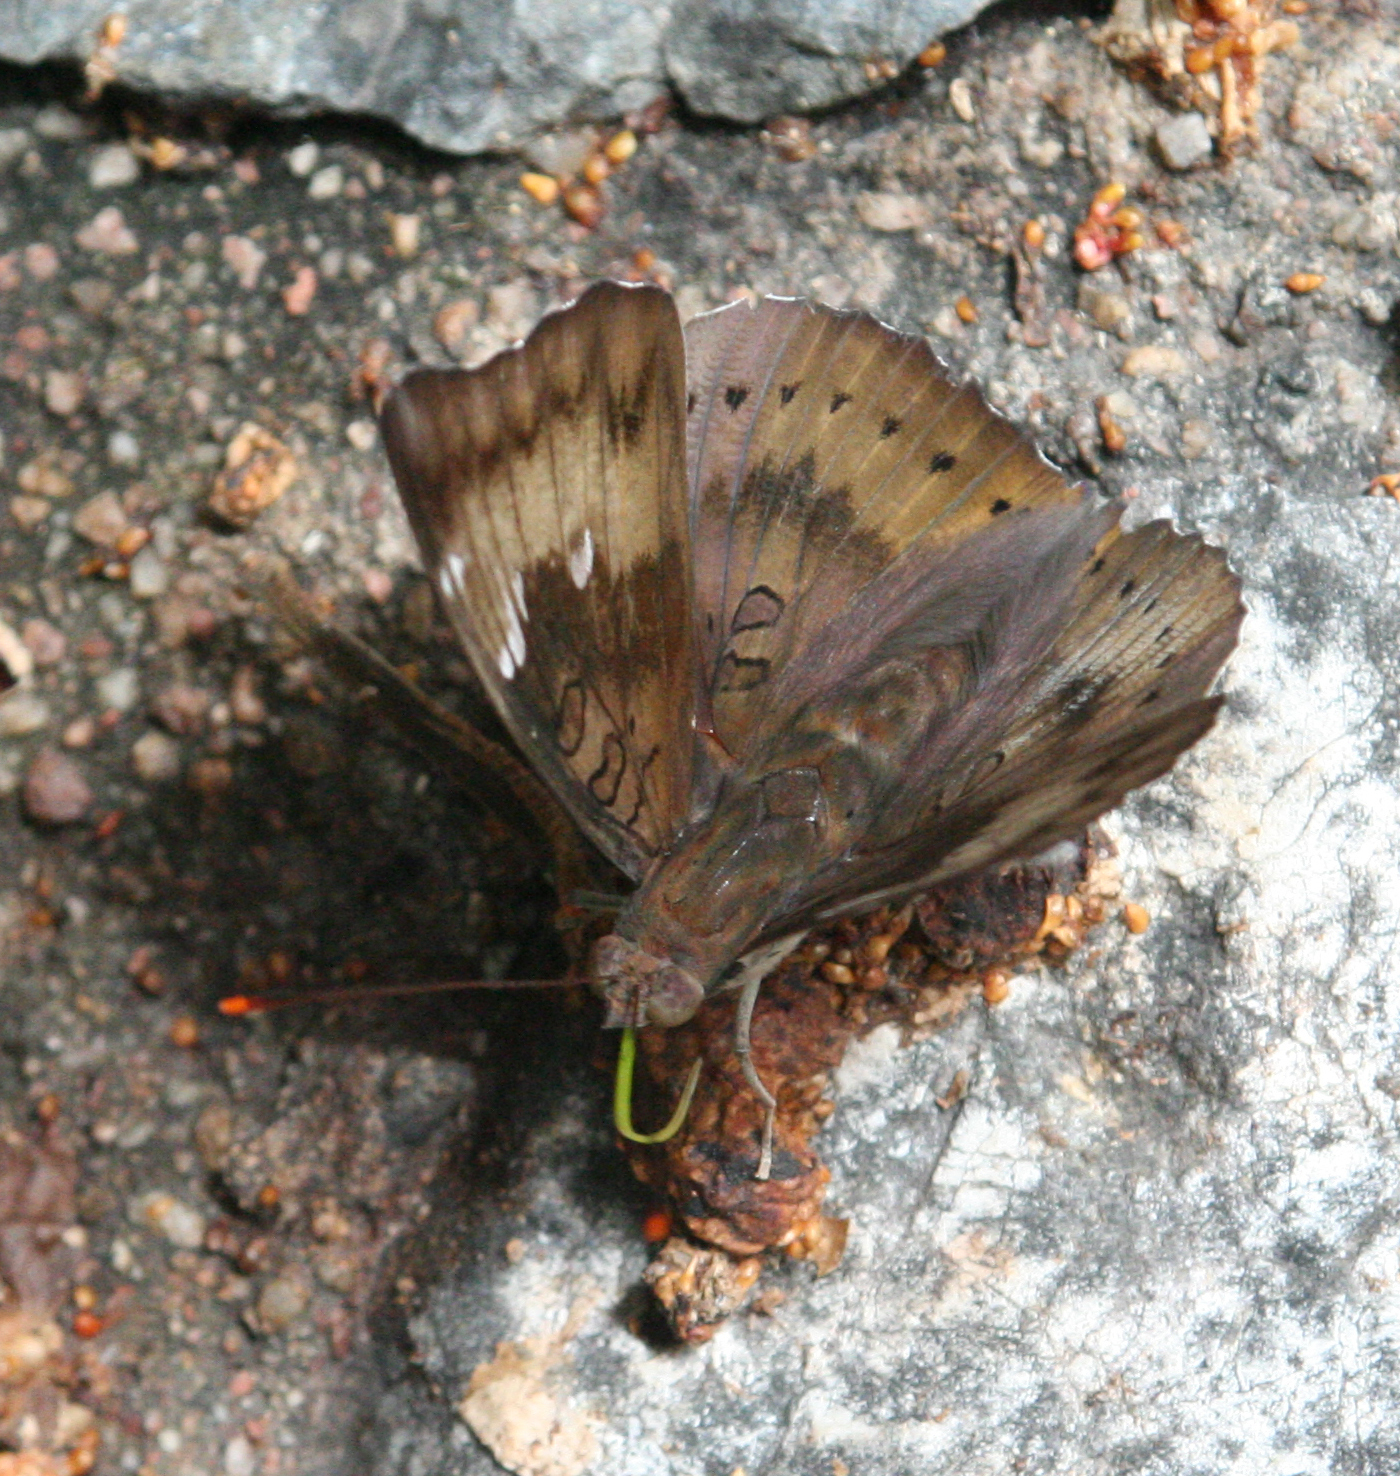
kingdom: Animalia
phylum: Arthropoda
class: Insecta
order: Lepidoptera
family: Nymphalidae
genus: Euthalia
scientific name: Euthalia aconthea
